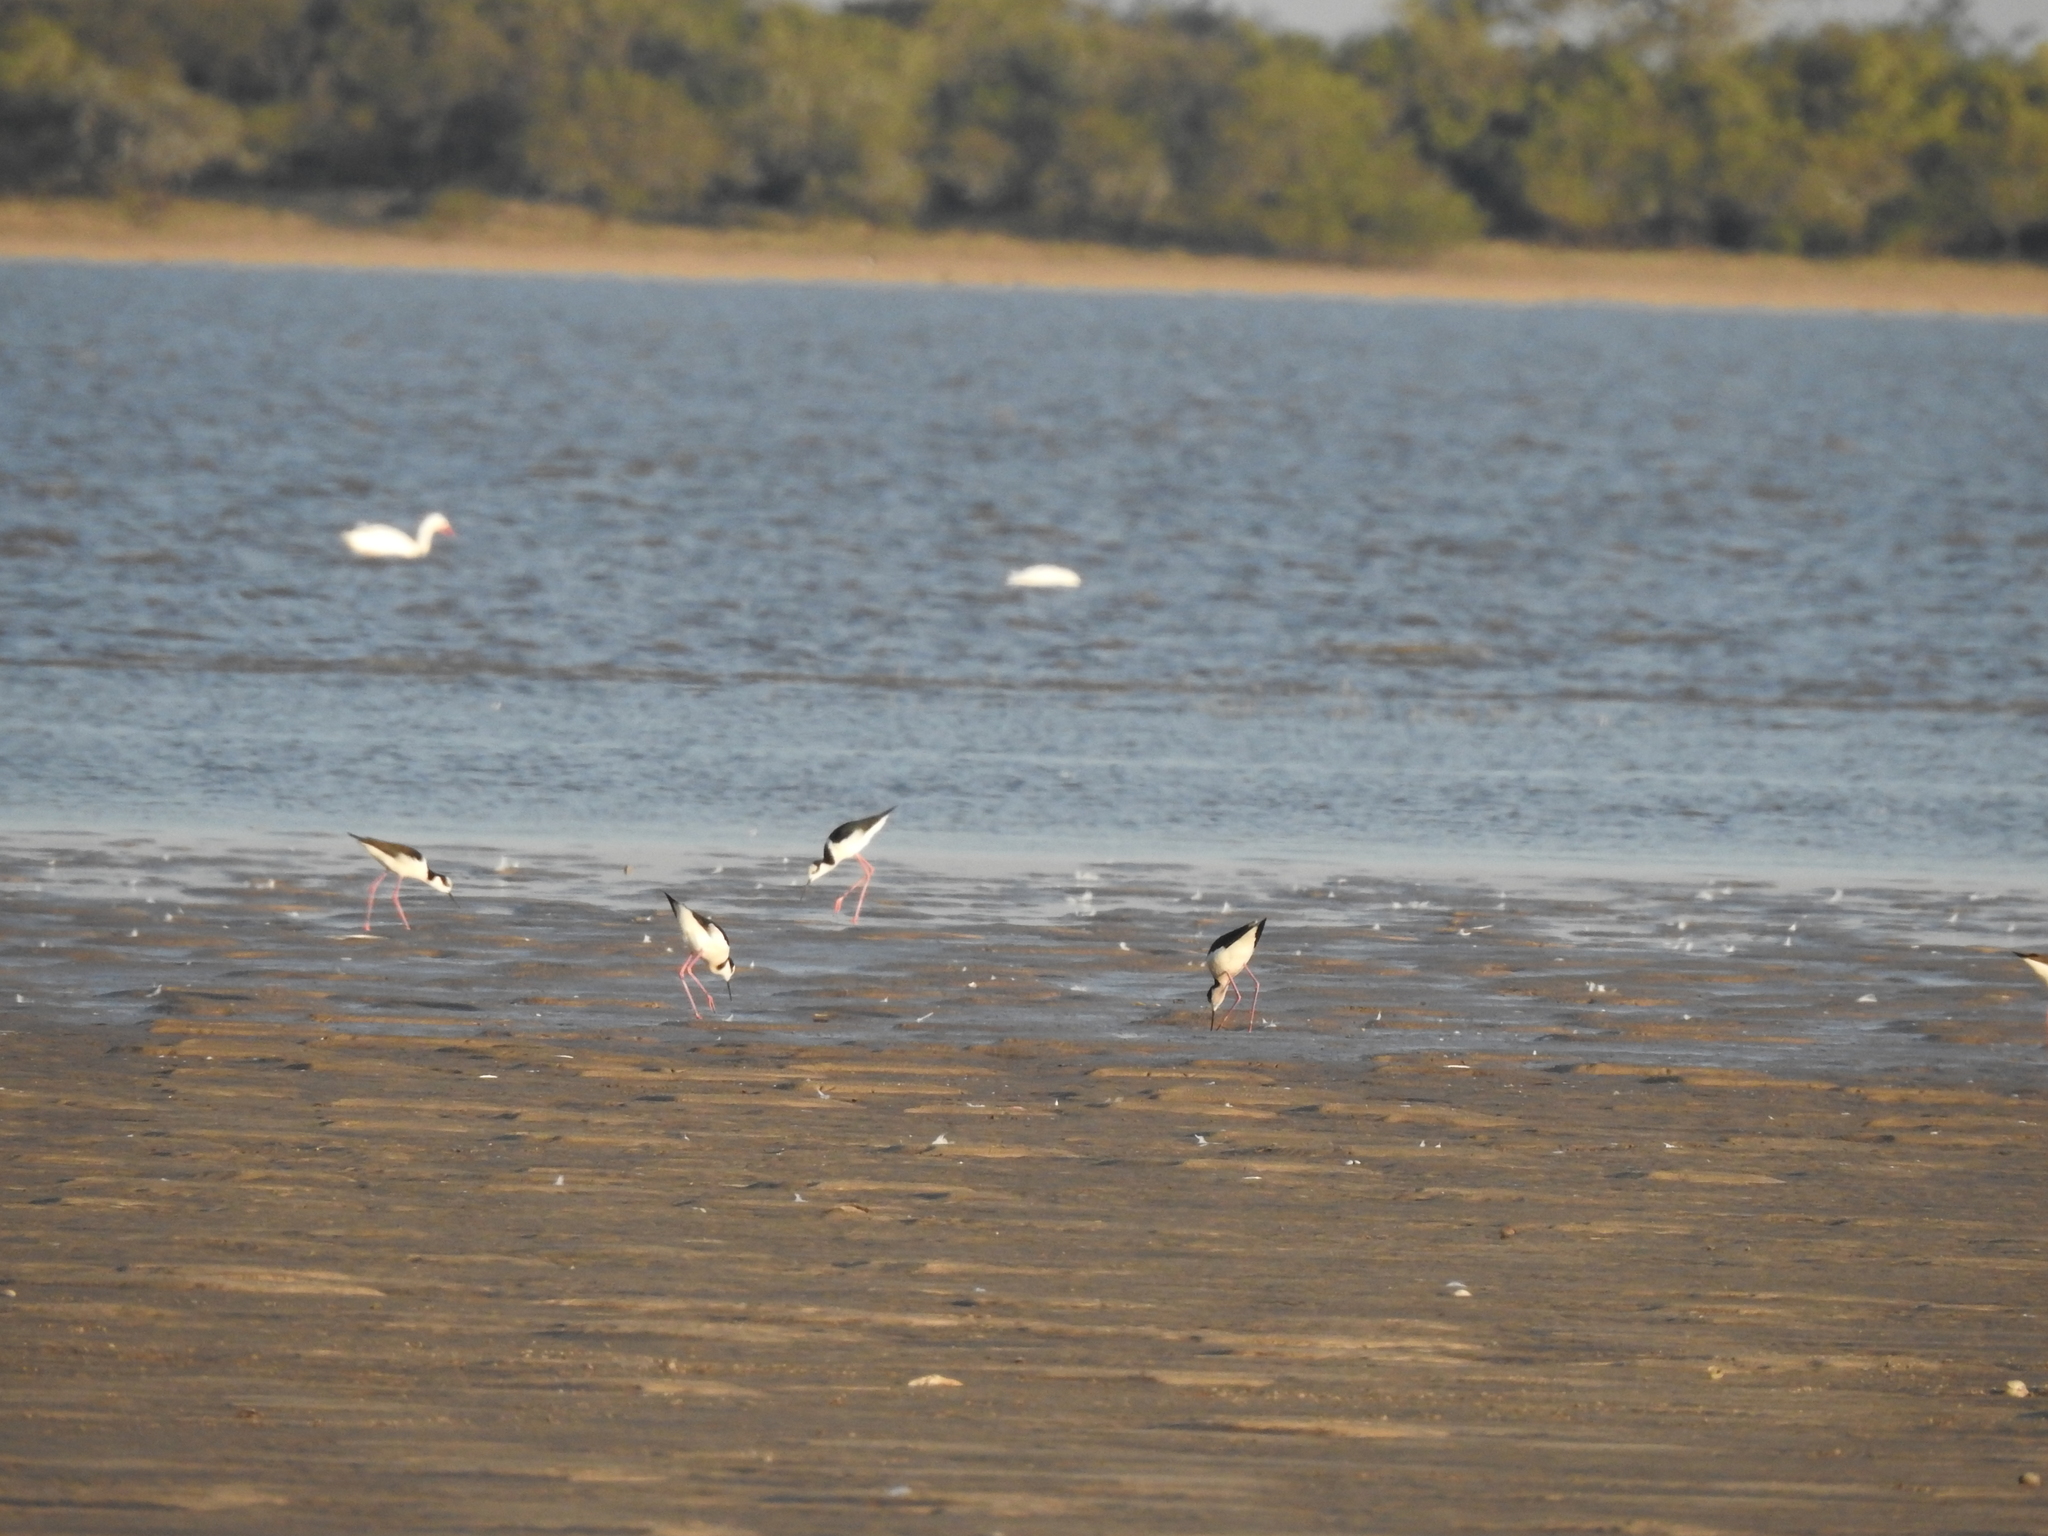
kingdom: Animalia
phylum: Chordata
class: Aves
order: Charadriiformes
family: Recurvirostridae
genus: Himantopus
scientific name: Himantopus mexicanus
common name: Black-necked stilt
